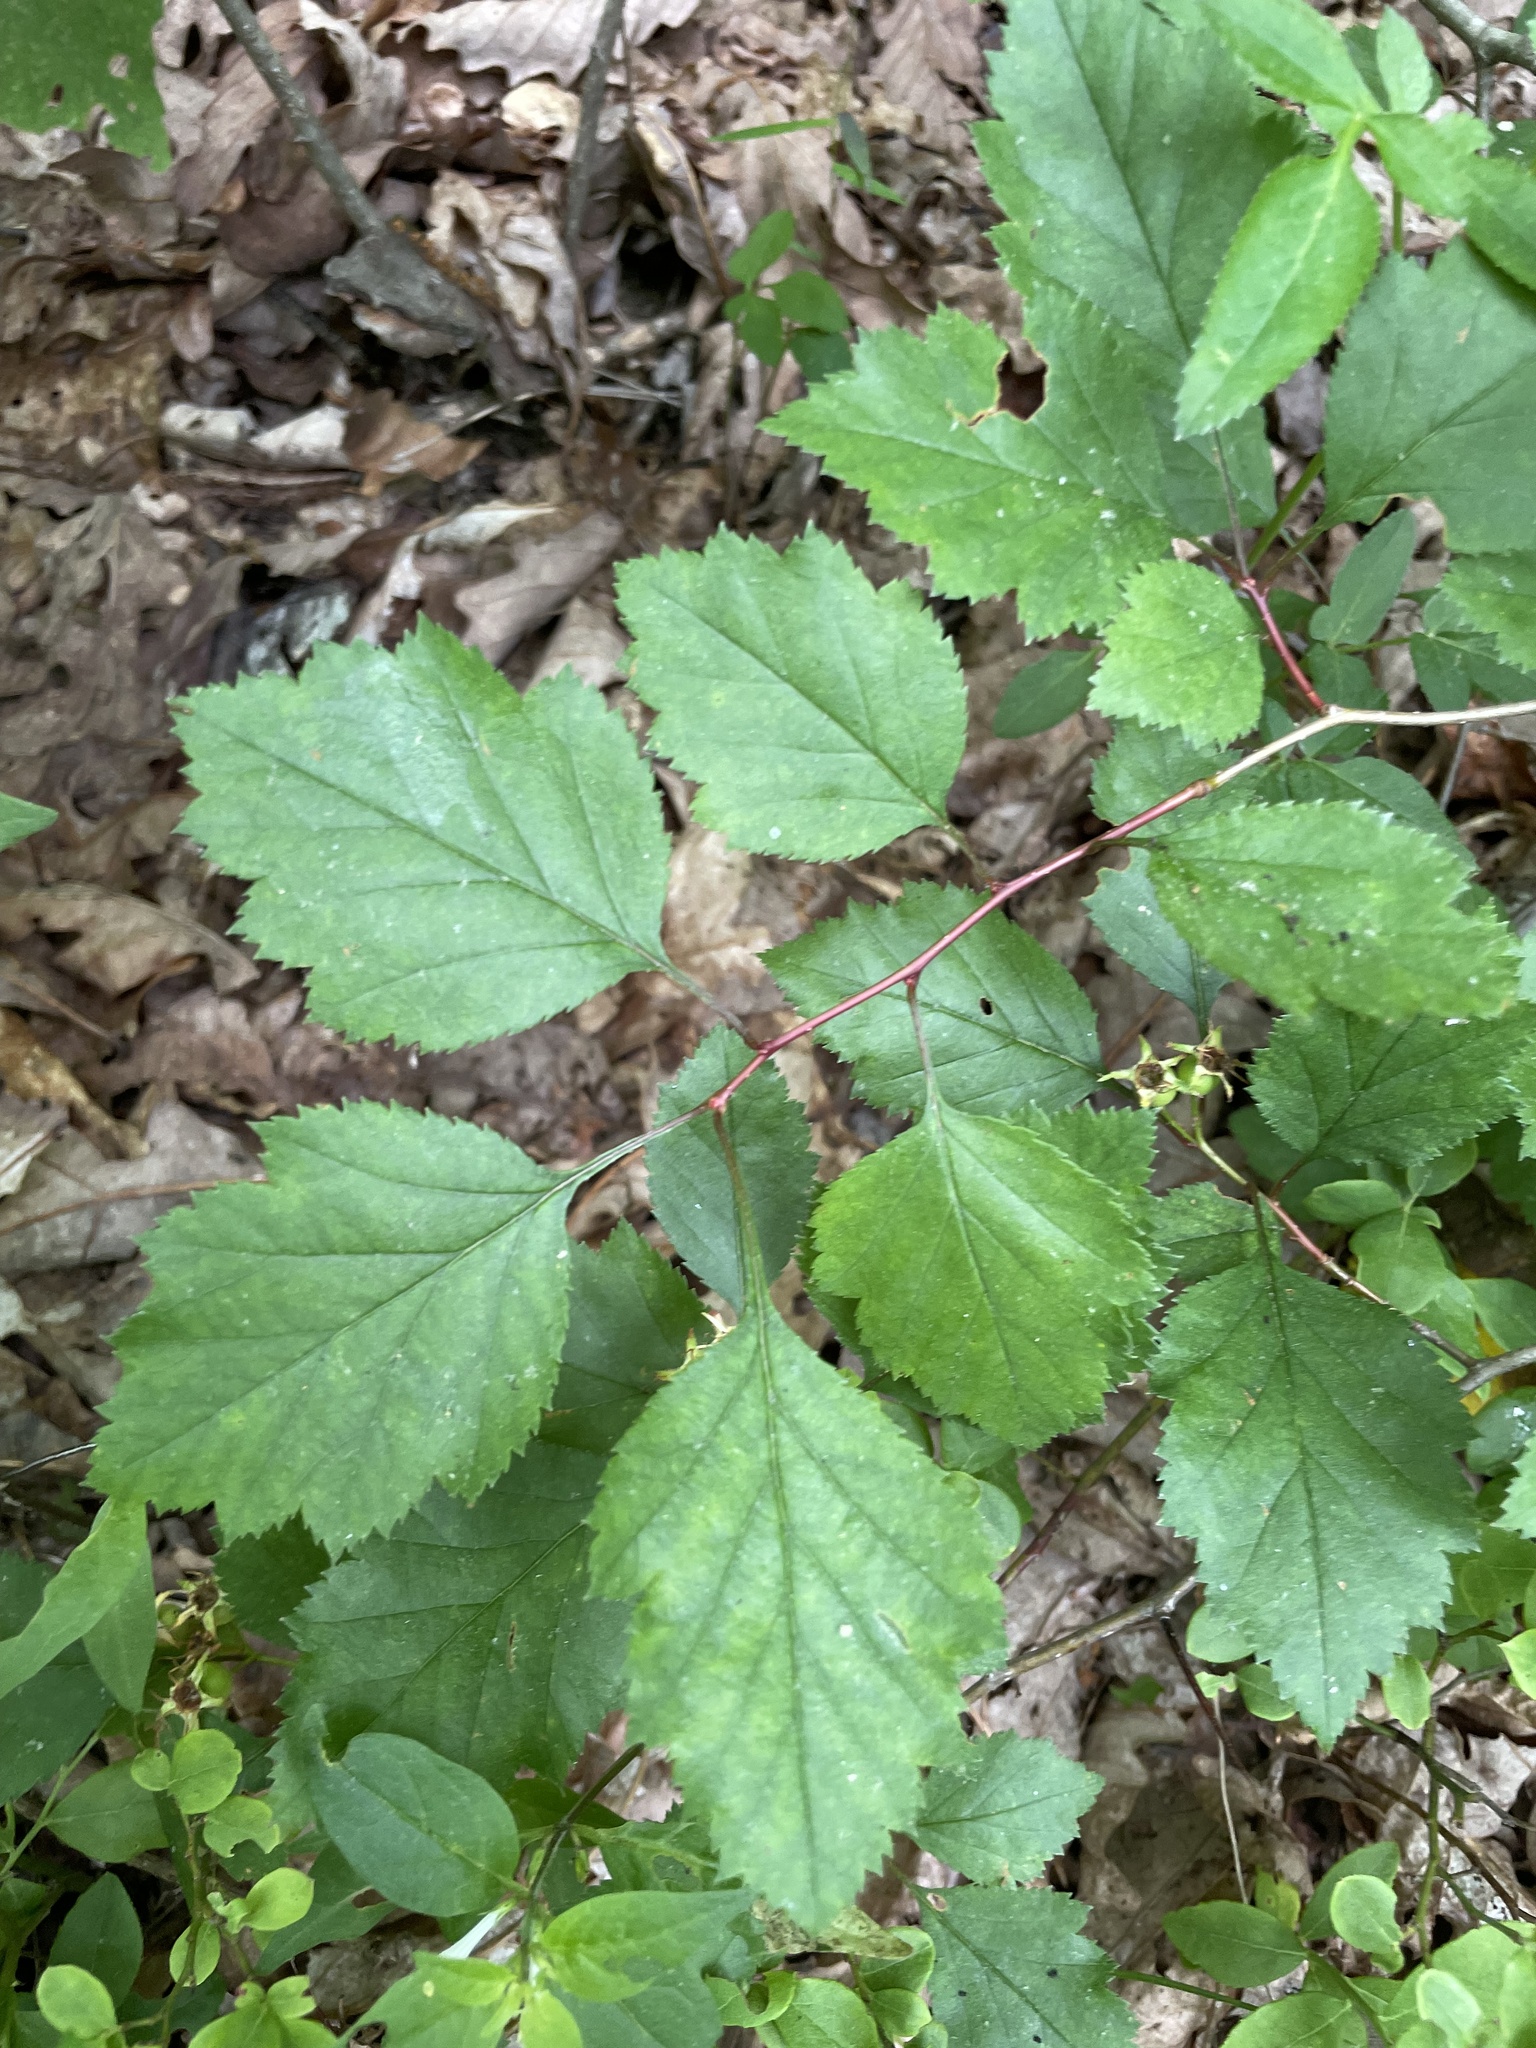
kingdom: Plantae
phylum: Tracheophyta
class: Magnoliopsida
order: Rosales
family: Rosaceae
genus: Crataegus
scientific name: Crataegus intricata
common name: Biltmore hawthorn
